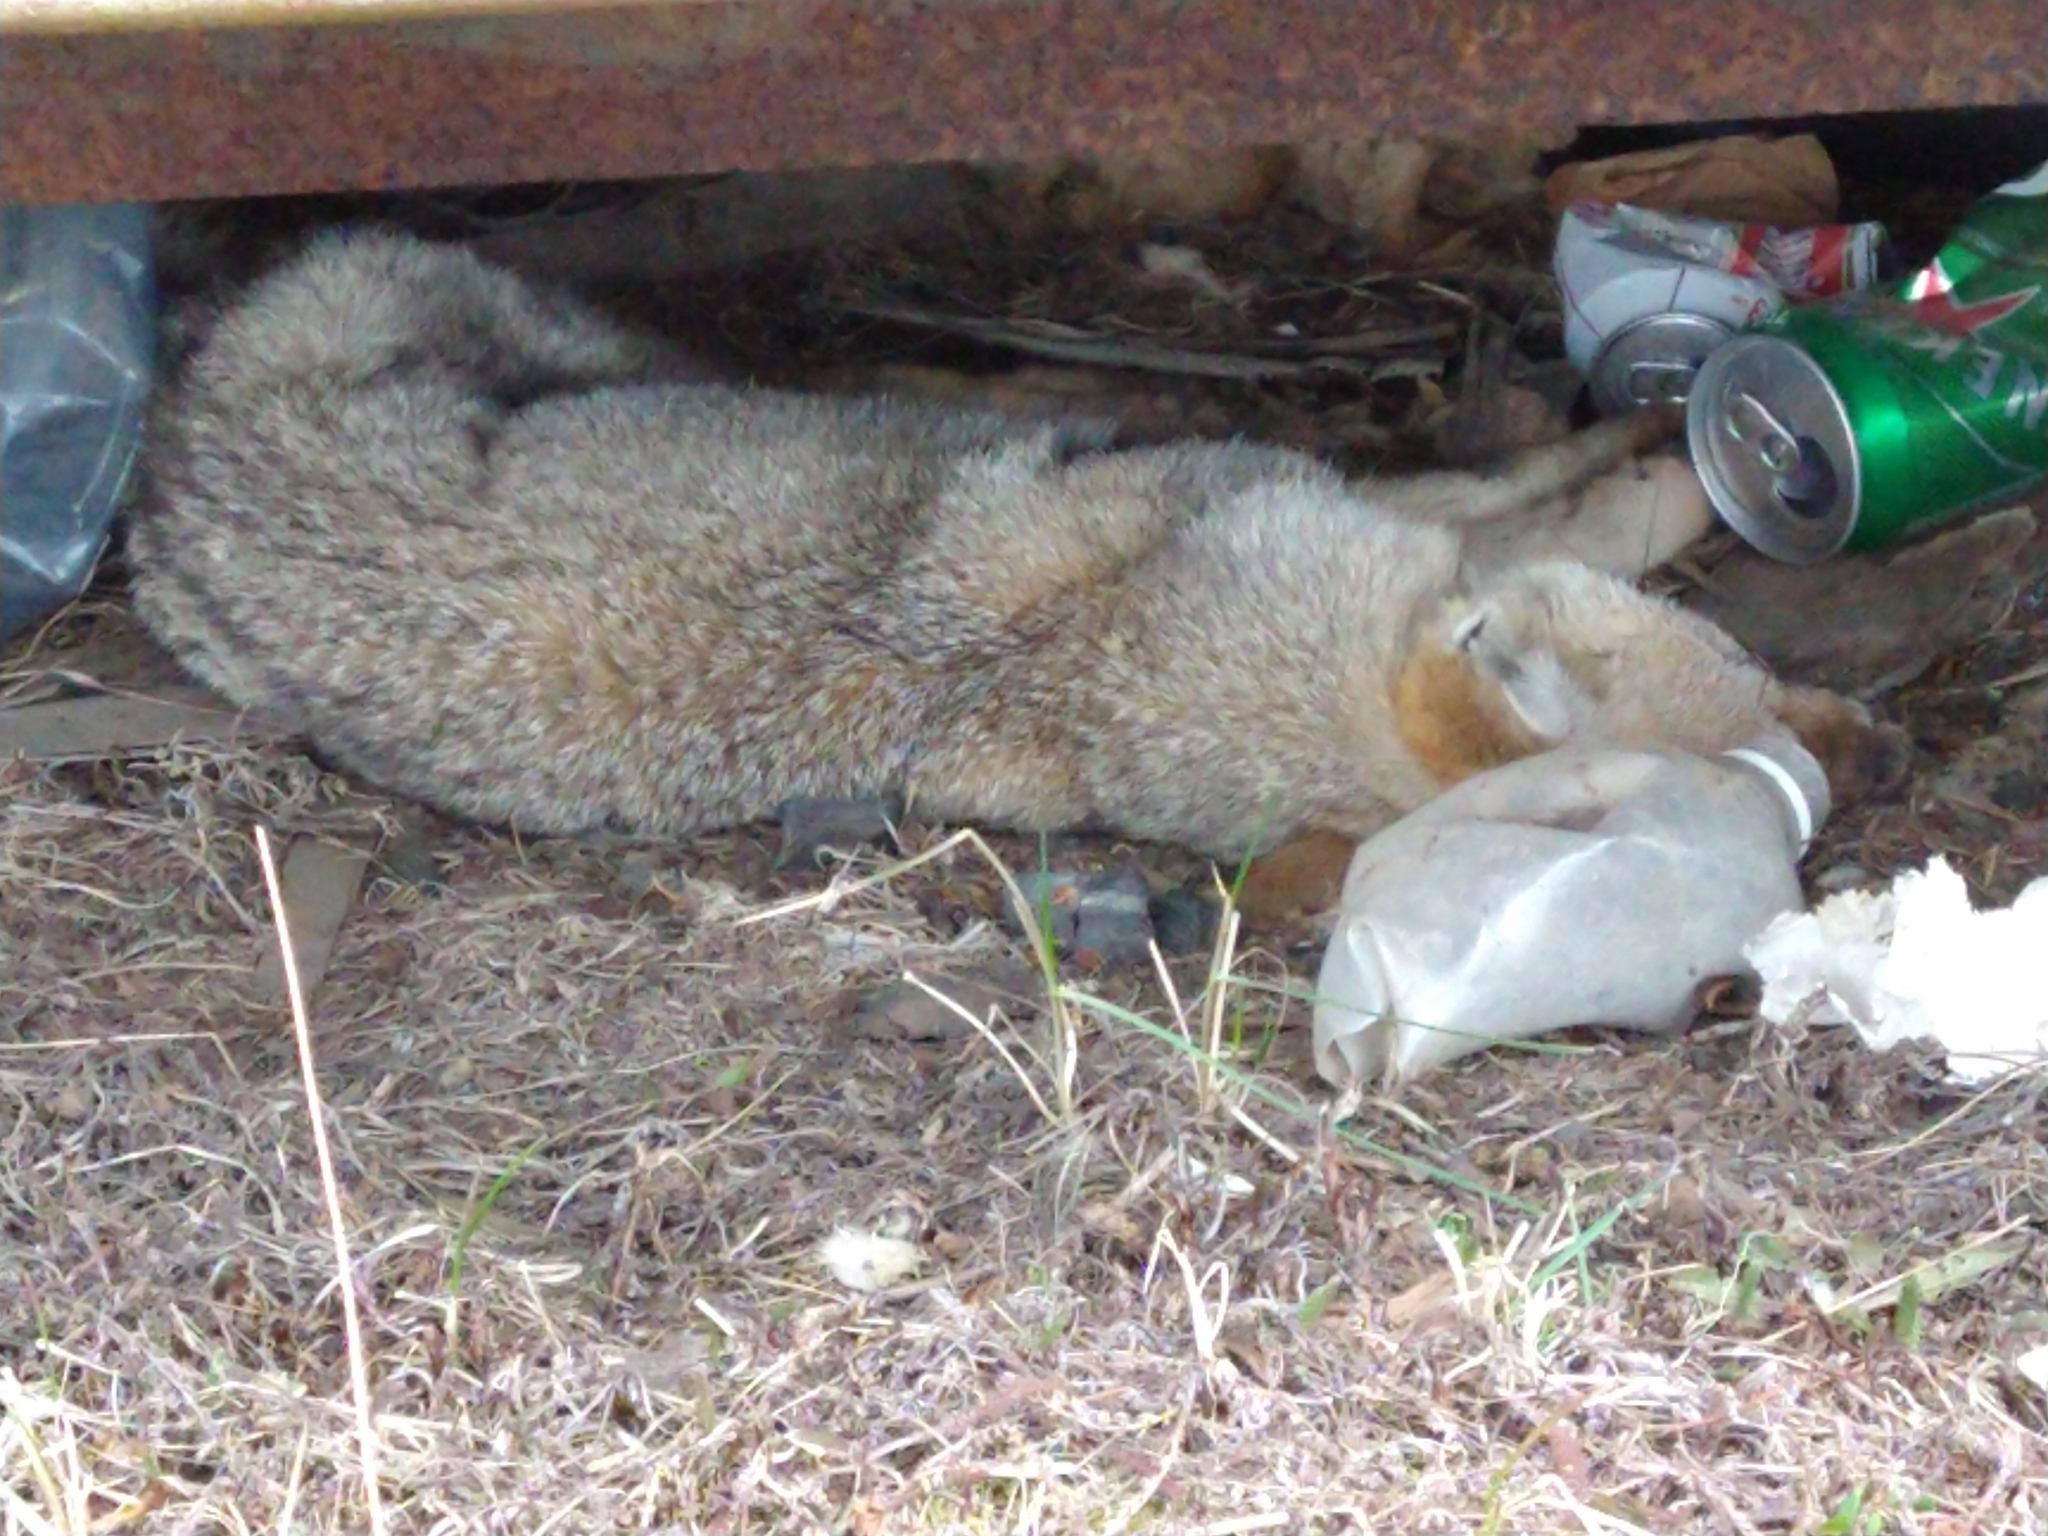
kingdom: Animalia
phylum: Chordata
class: Mammalia
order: Carnivora
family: Canidae
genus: Lycalopex
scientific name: Lycalopex gymnocercus
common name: Pampas fox
